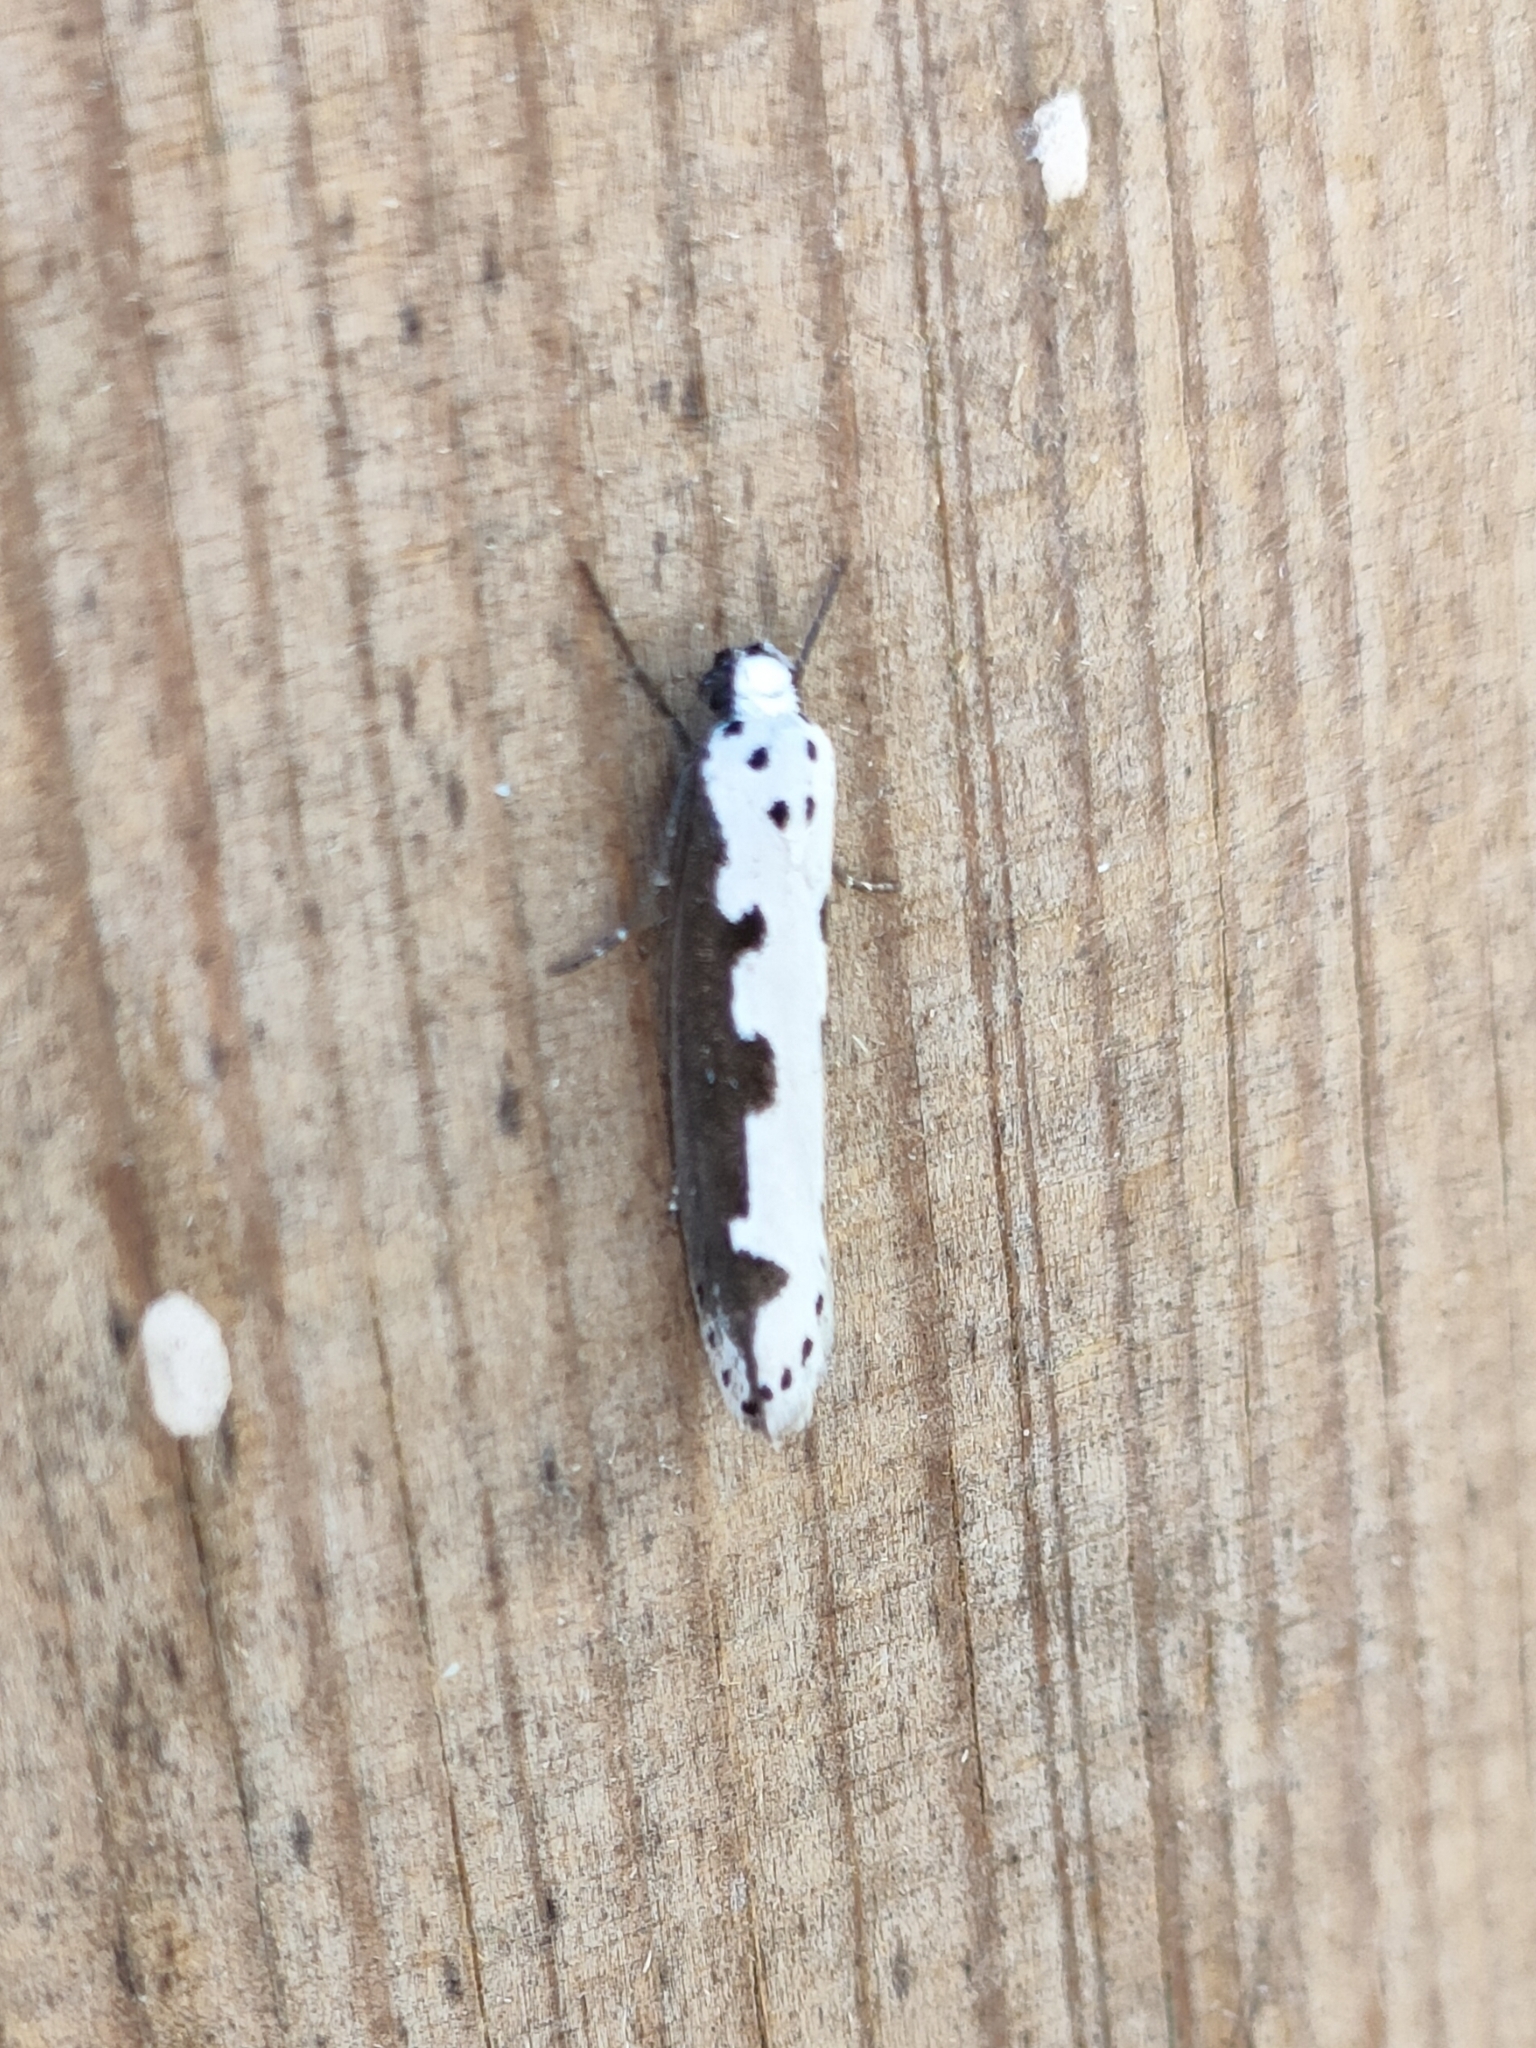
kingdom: Animalia
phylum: Arthropoda
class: Insecta
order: Lepidoptera
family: Ethmiidae
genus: Ethmia
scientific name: Ethmia bipunctella
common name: Bordered ermel
